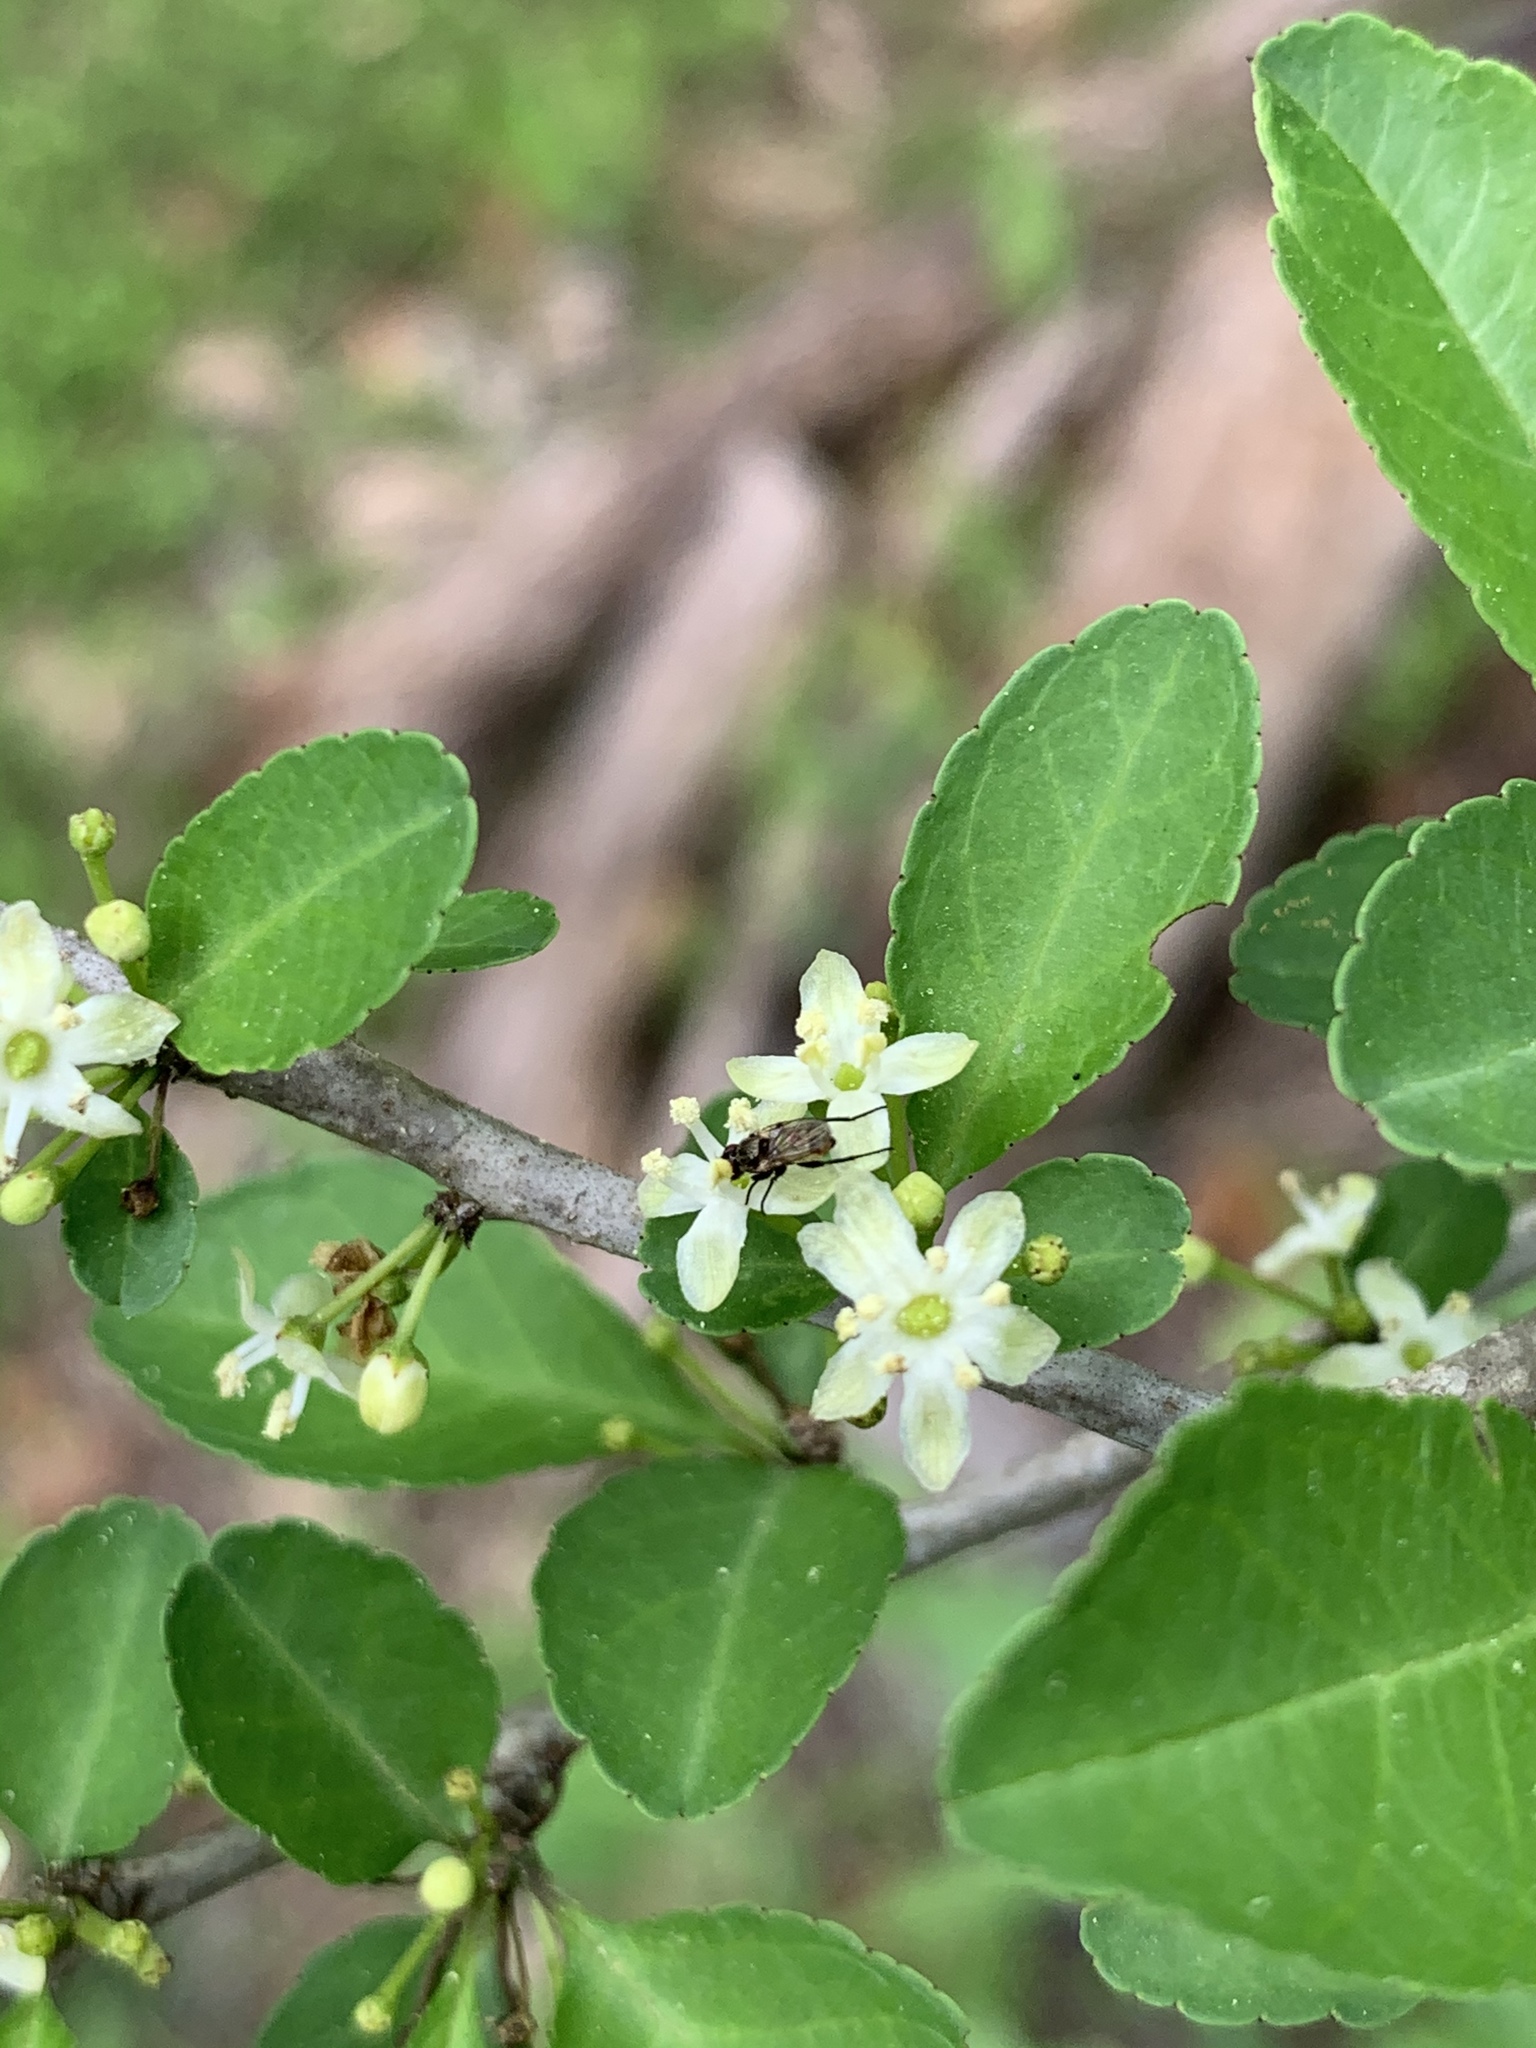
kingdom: Plantae
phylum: Tracheophyta
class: Magnoliopsida
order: Aquifoliales
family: Aquifoliaceae
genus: Ilex
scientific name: Ilex vomitoria
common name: Yaupon holly
